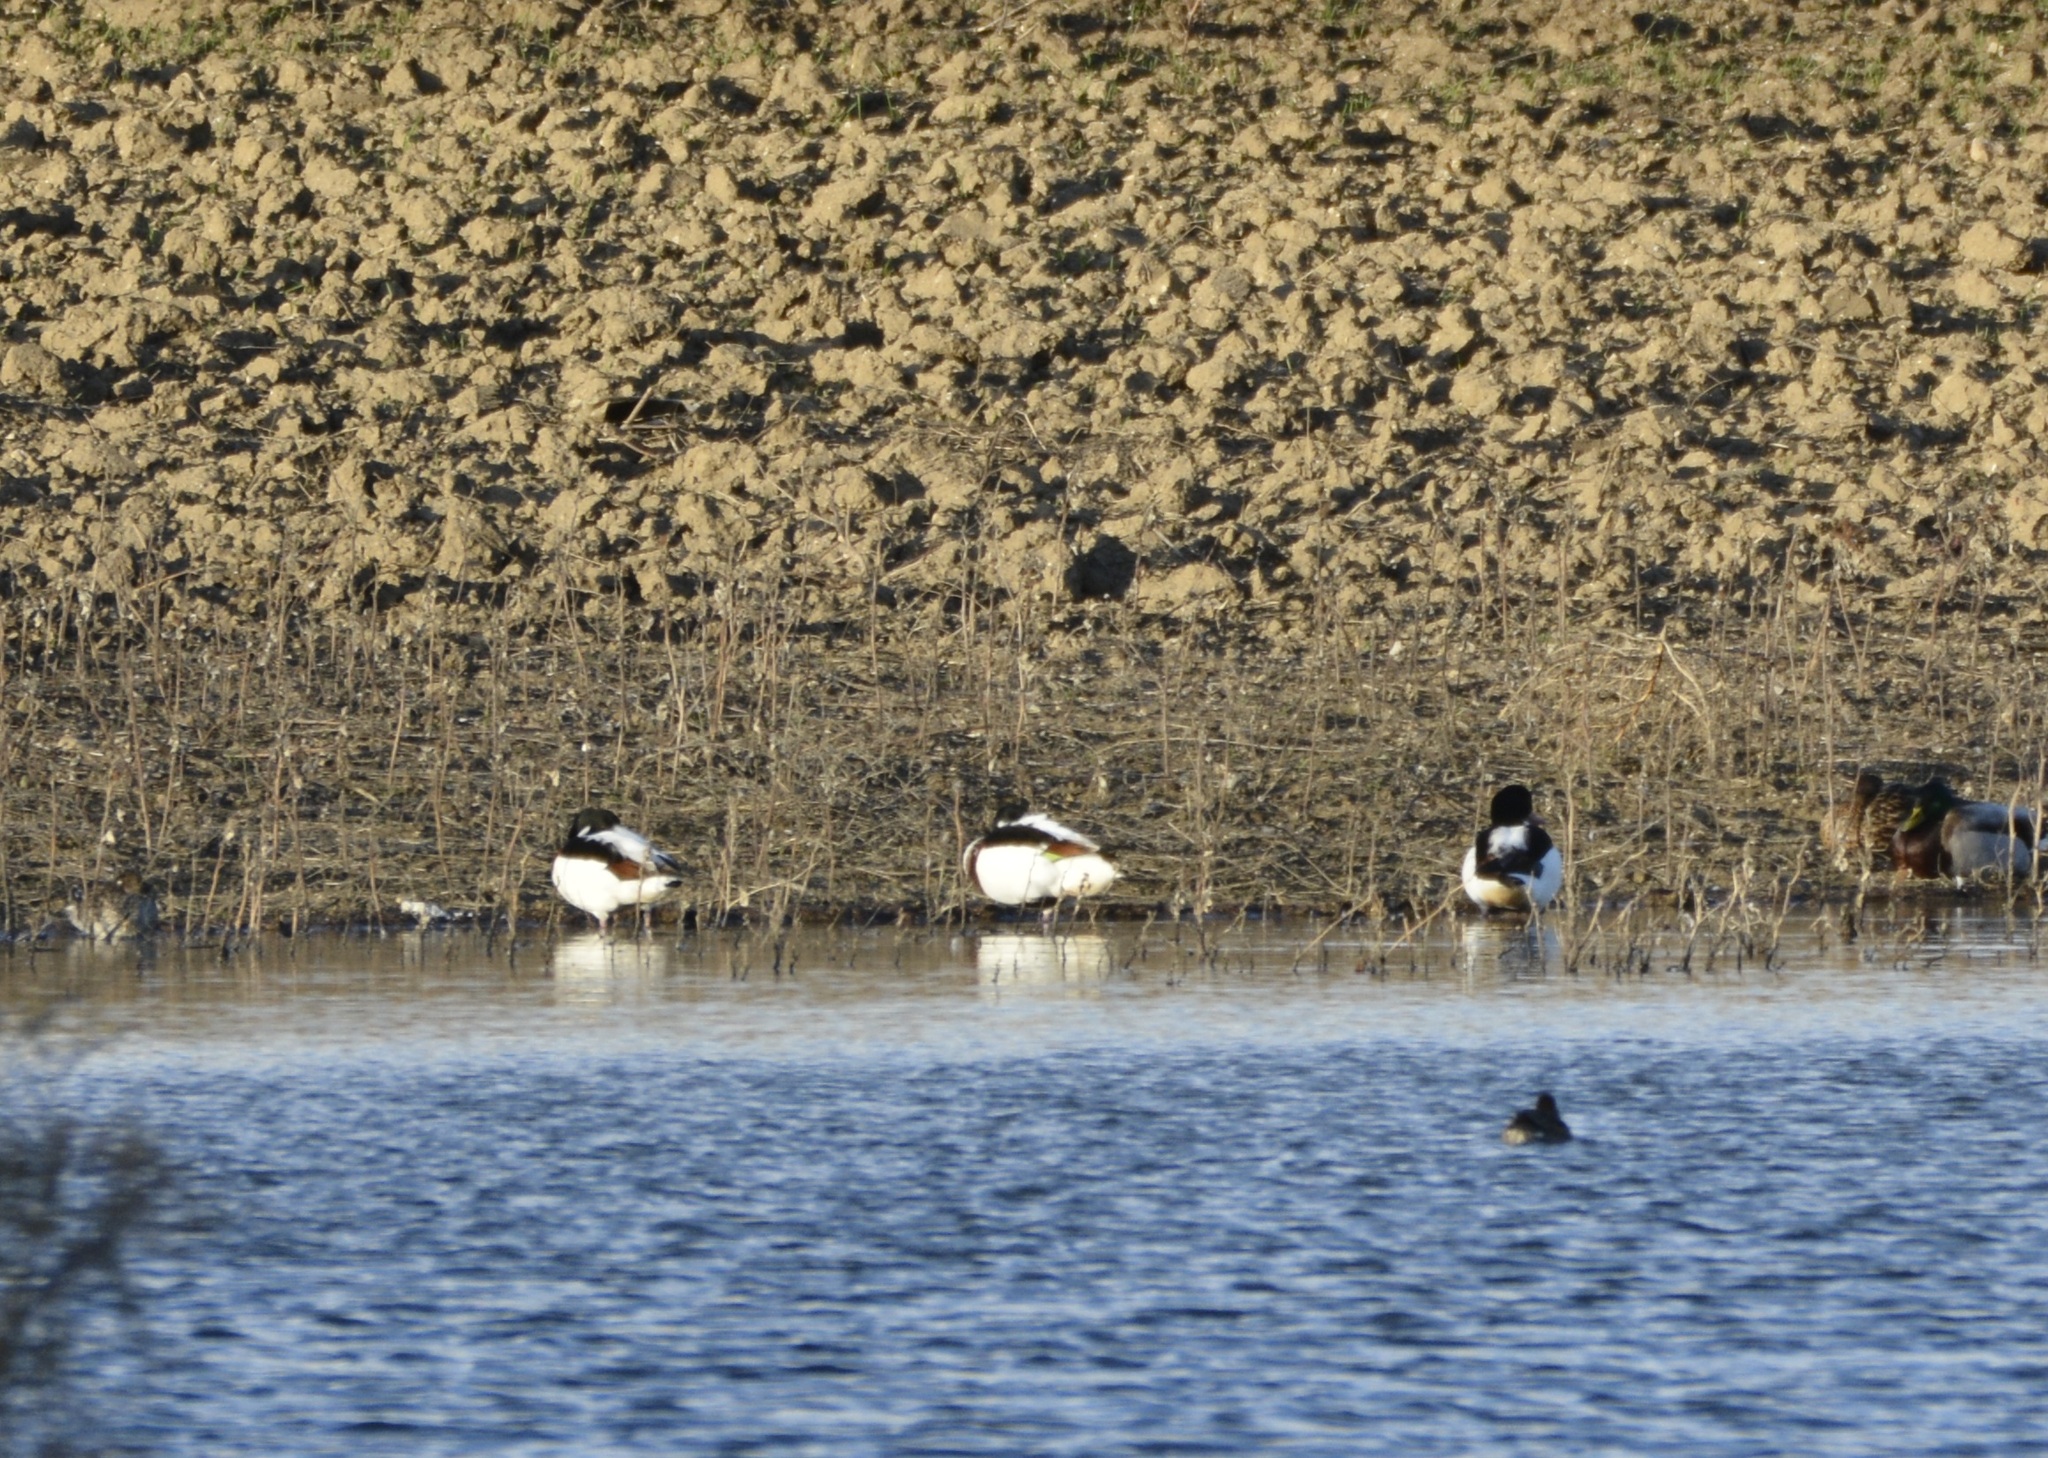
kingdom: Animalia
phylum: Chordata
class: Aves
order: Anseriformes
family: Anatidae
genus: Tadorna
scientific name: Tadorna tadorna
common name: Common shelduck
